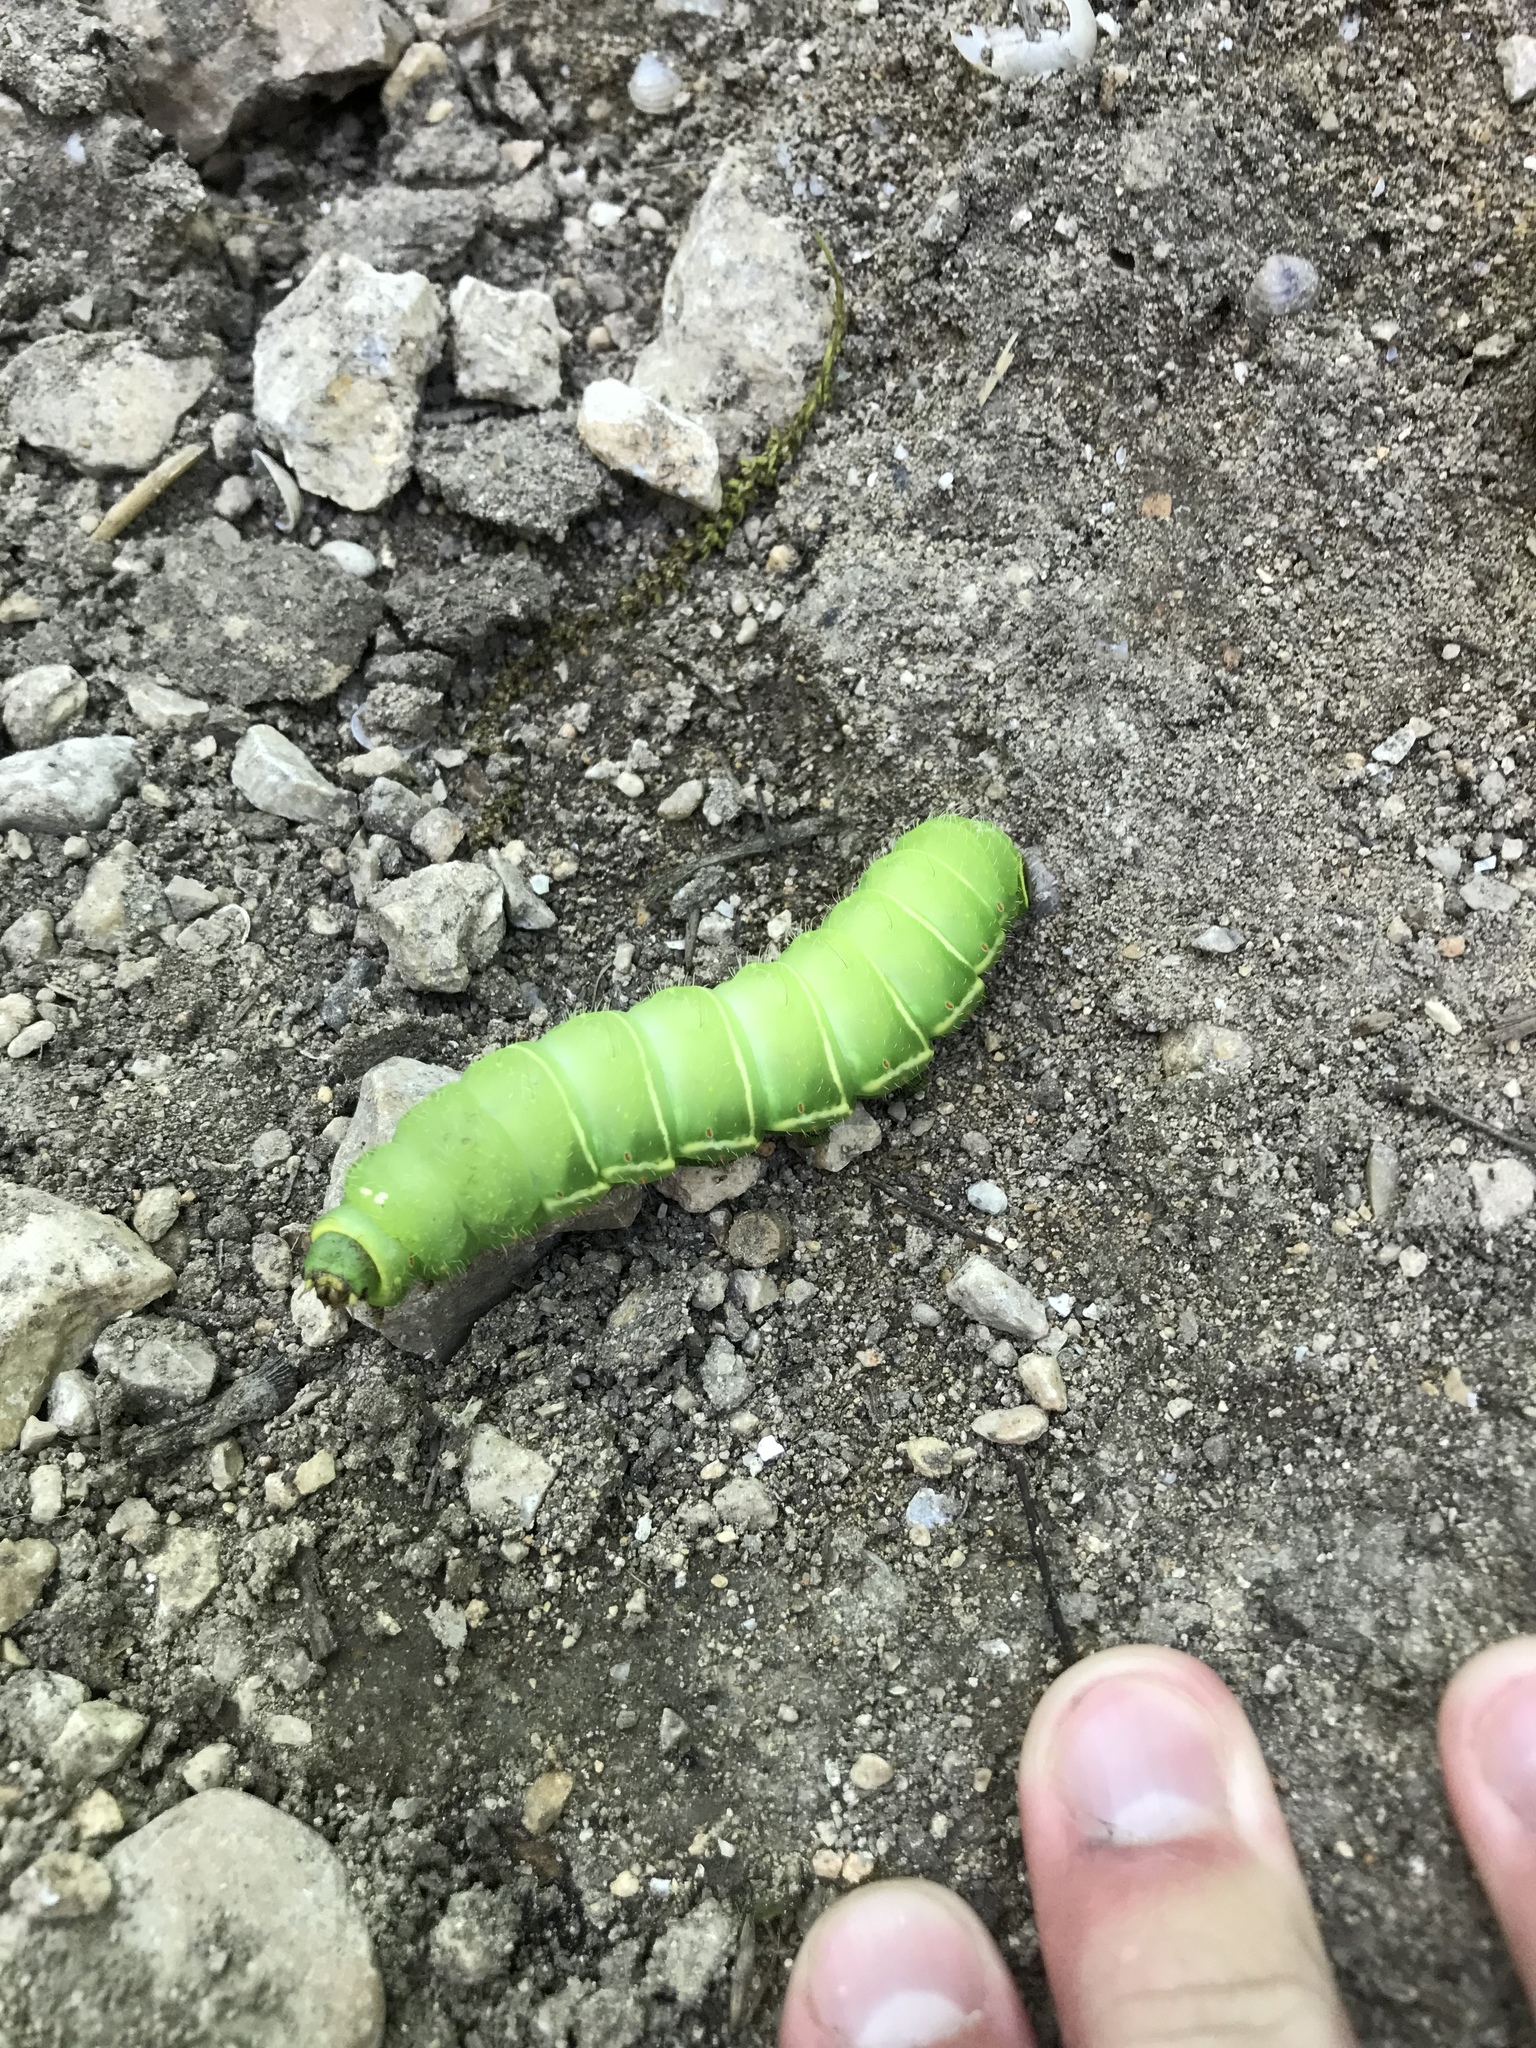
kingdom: Animalia
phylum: Arthropoda
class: Insecta
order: Lepidoptera
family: Saturniidae
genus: Actias
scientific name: Actias luna
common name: Luna moth
